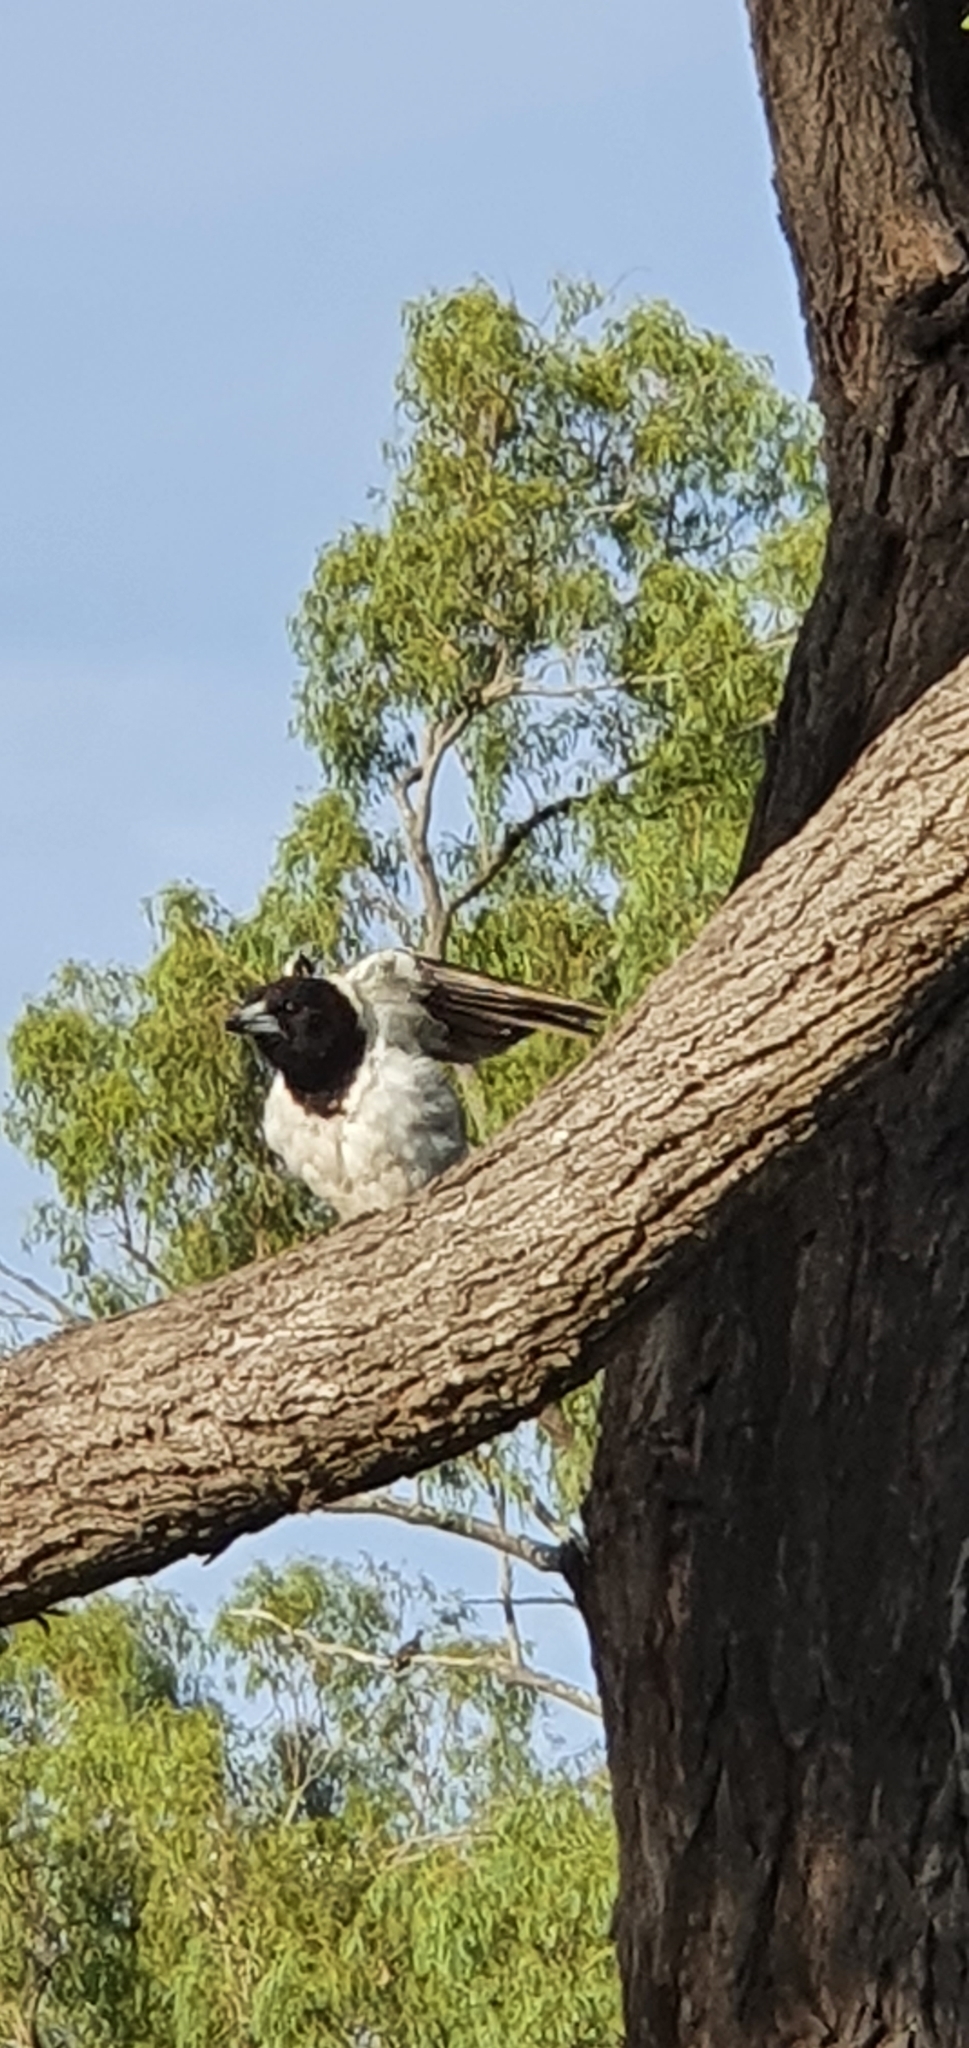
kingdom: Animalia
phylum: Chordata
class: Aves
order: Passeriformes
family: Cracticidae
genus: Cracticus
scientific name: Cracticus nigrogularis
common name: Pied butcherbird
